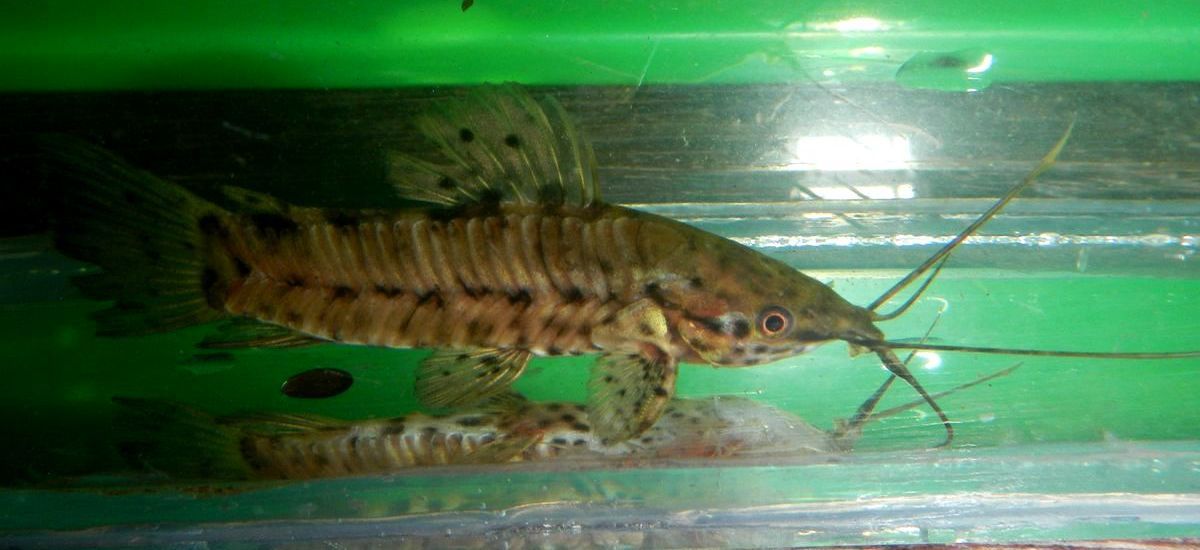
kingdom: Animalia
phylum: Chordata
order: Siluriformes
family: Callichthyidae
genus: Megalechis
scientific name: Megalechis thoracata
